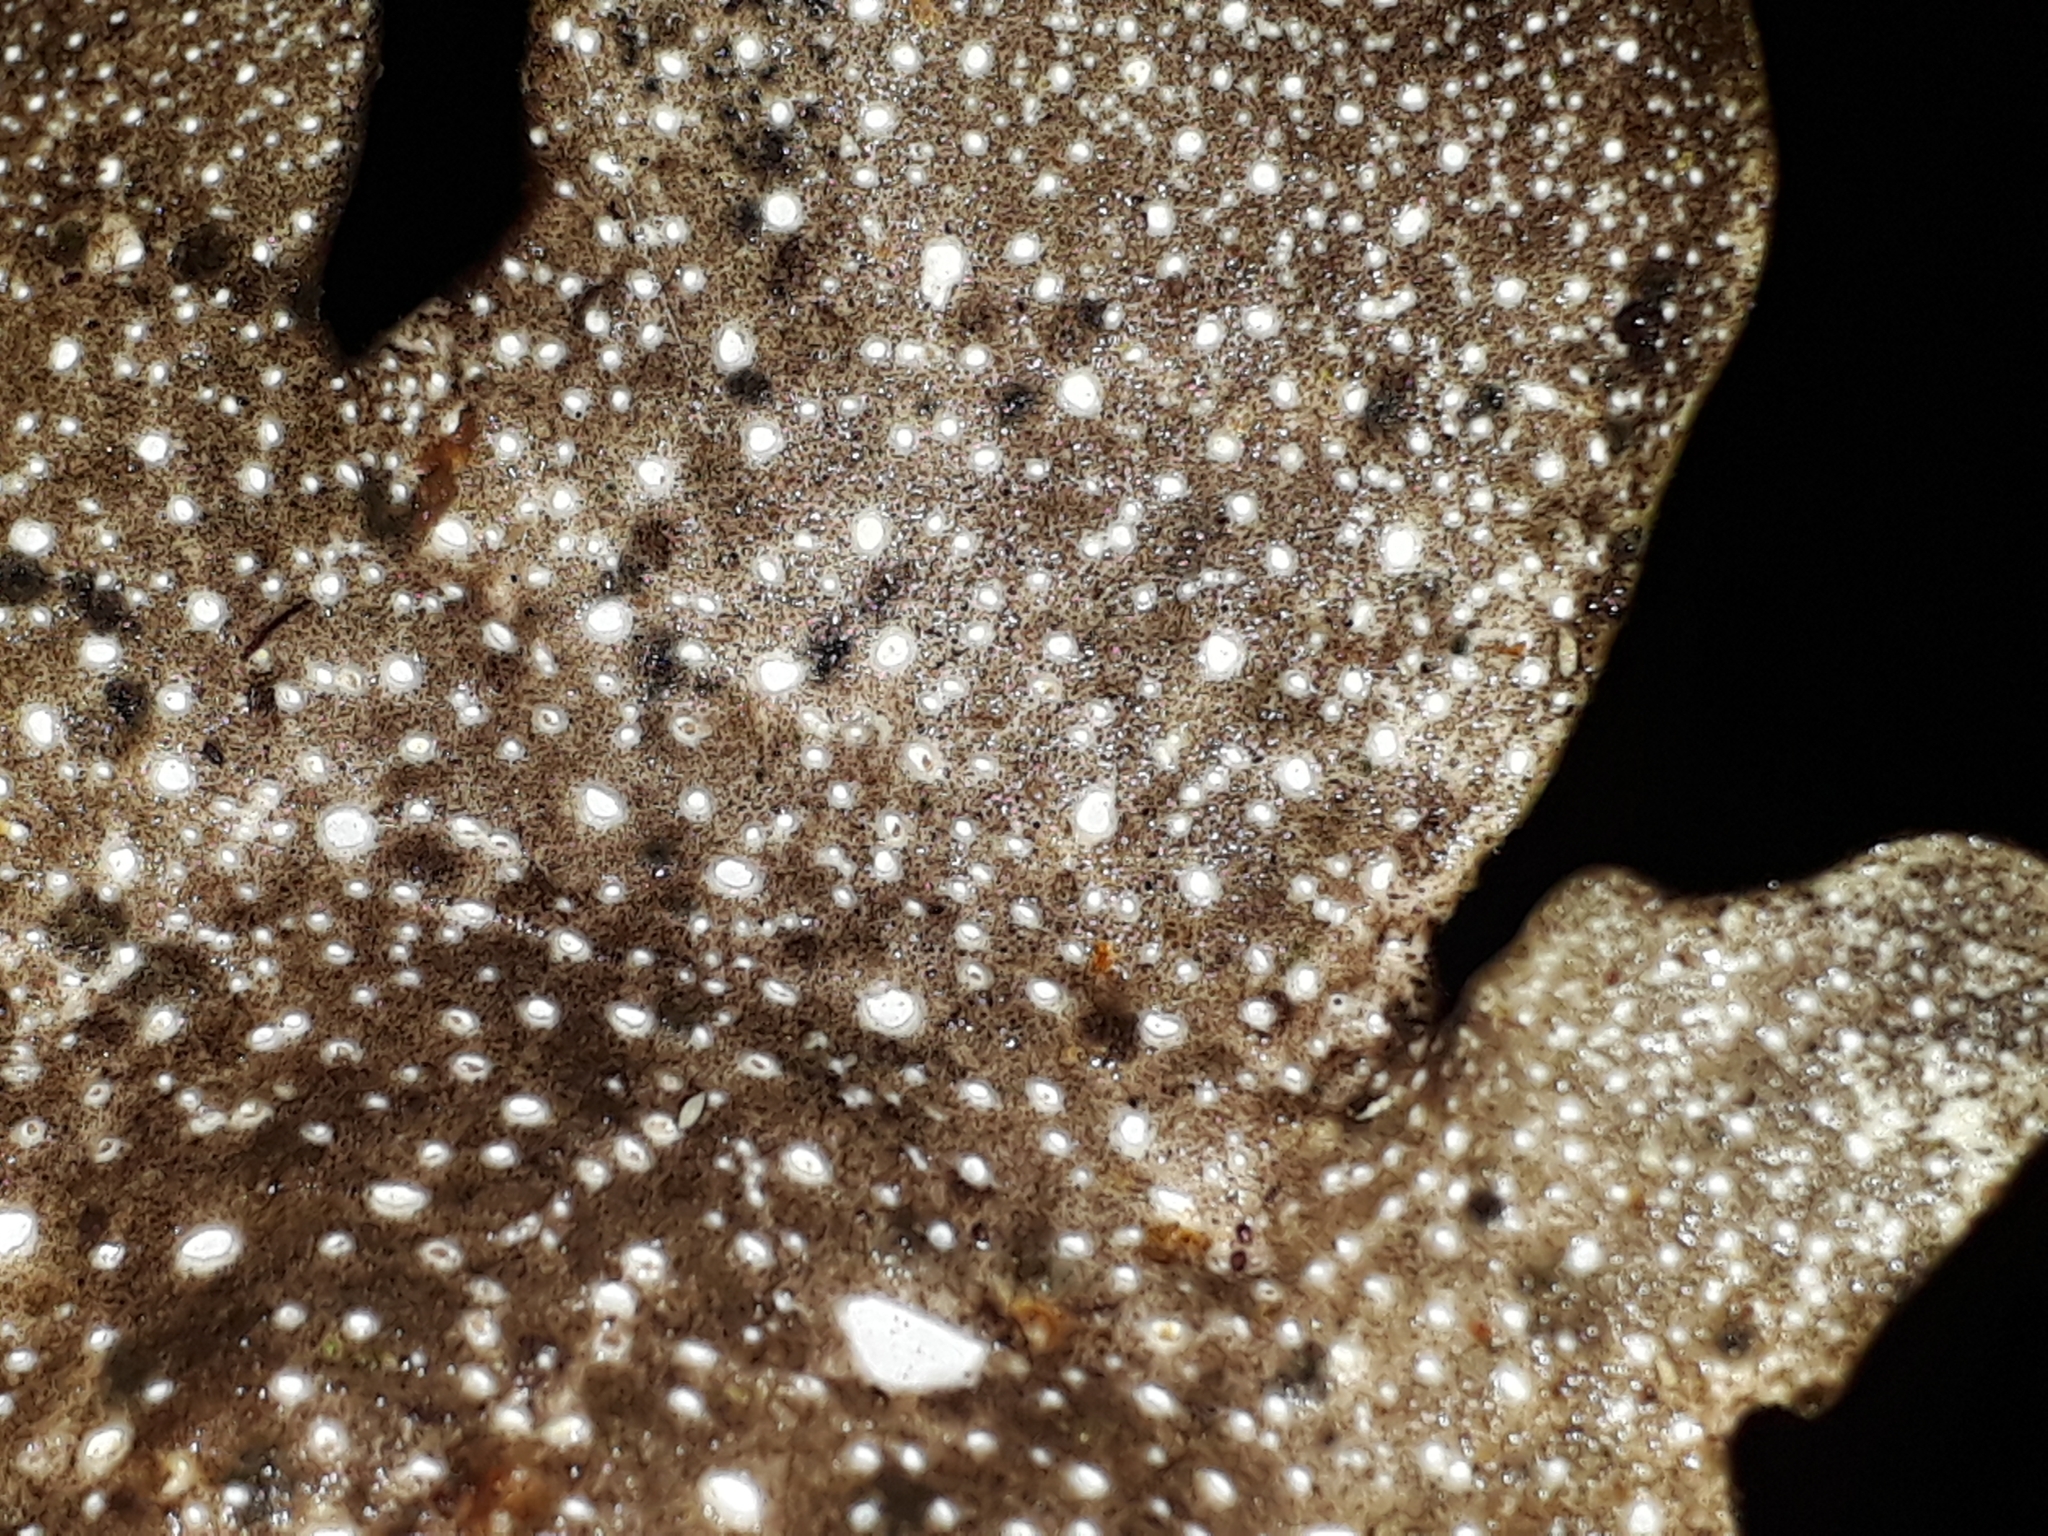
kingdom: Fungi
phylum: Ascomycota
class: Lecanoromycetes
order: Peltigerales
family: Lobariaceae
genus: Sticta
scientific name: Sticta latifrons
